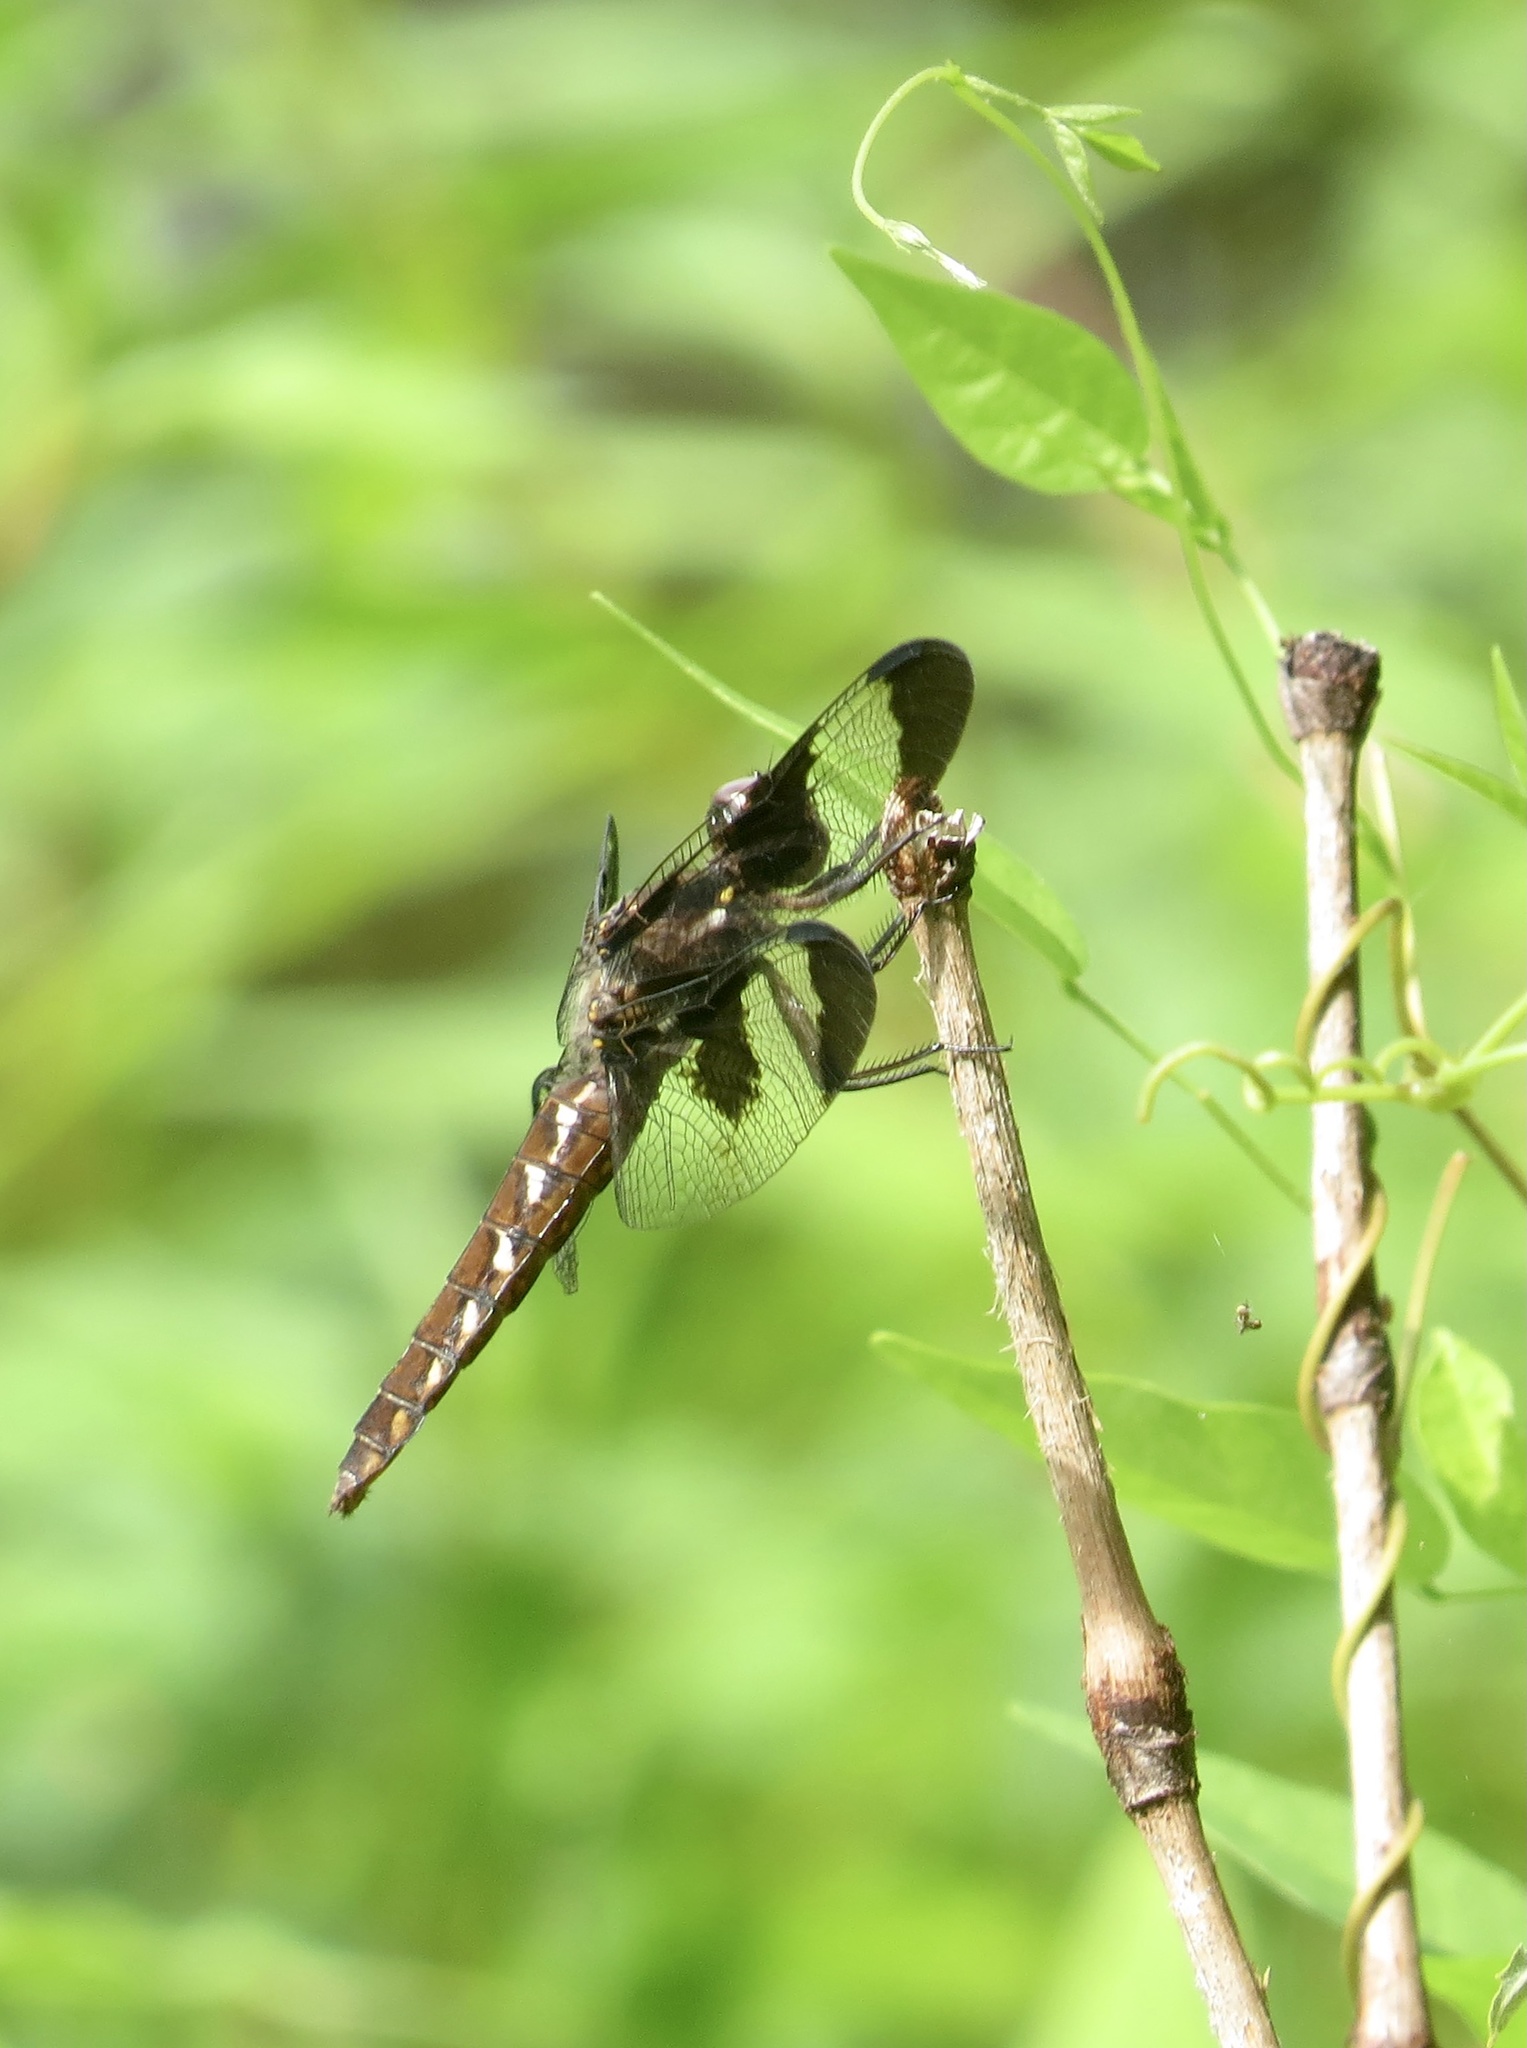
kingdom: Animalia
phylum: Arthropoda
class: Insecta
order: Odonata
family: Libellulidae
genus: Plathemis
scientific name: Plathemis lydia
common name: Common whitetail
